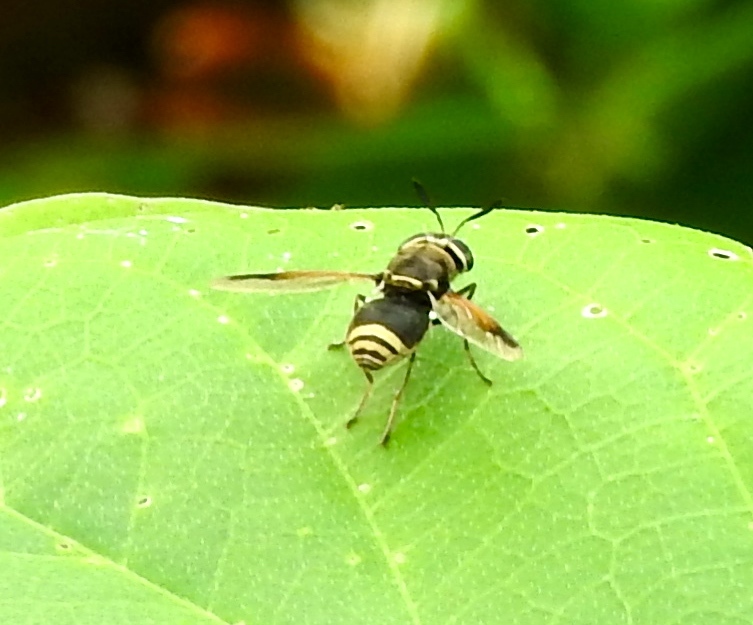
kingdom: Animalia
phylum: Arthropoda
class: Insecta
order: Diptera
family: Stratiomyidae
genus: Hoplitimyia
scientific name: Hoplitimyia mutabilis
